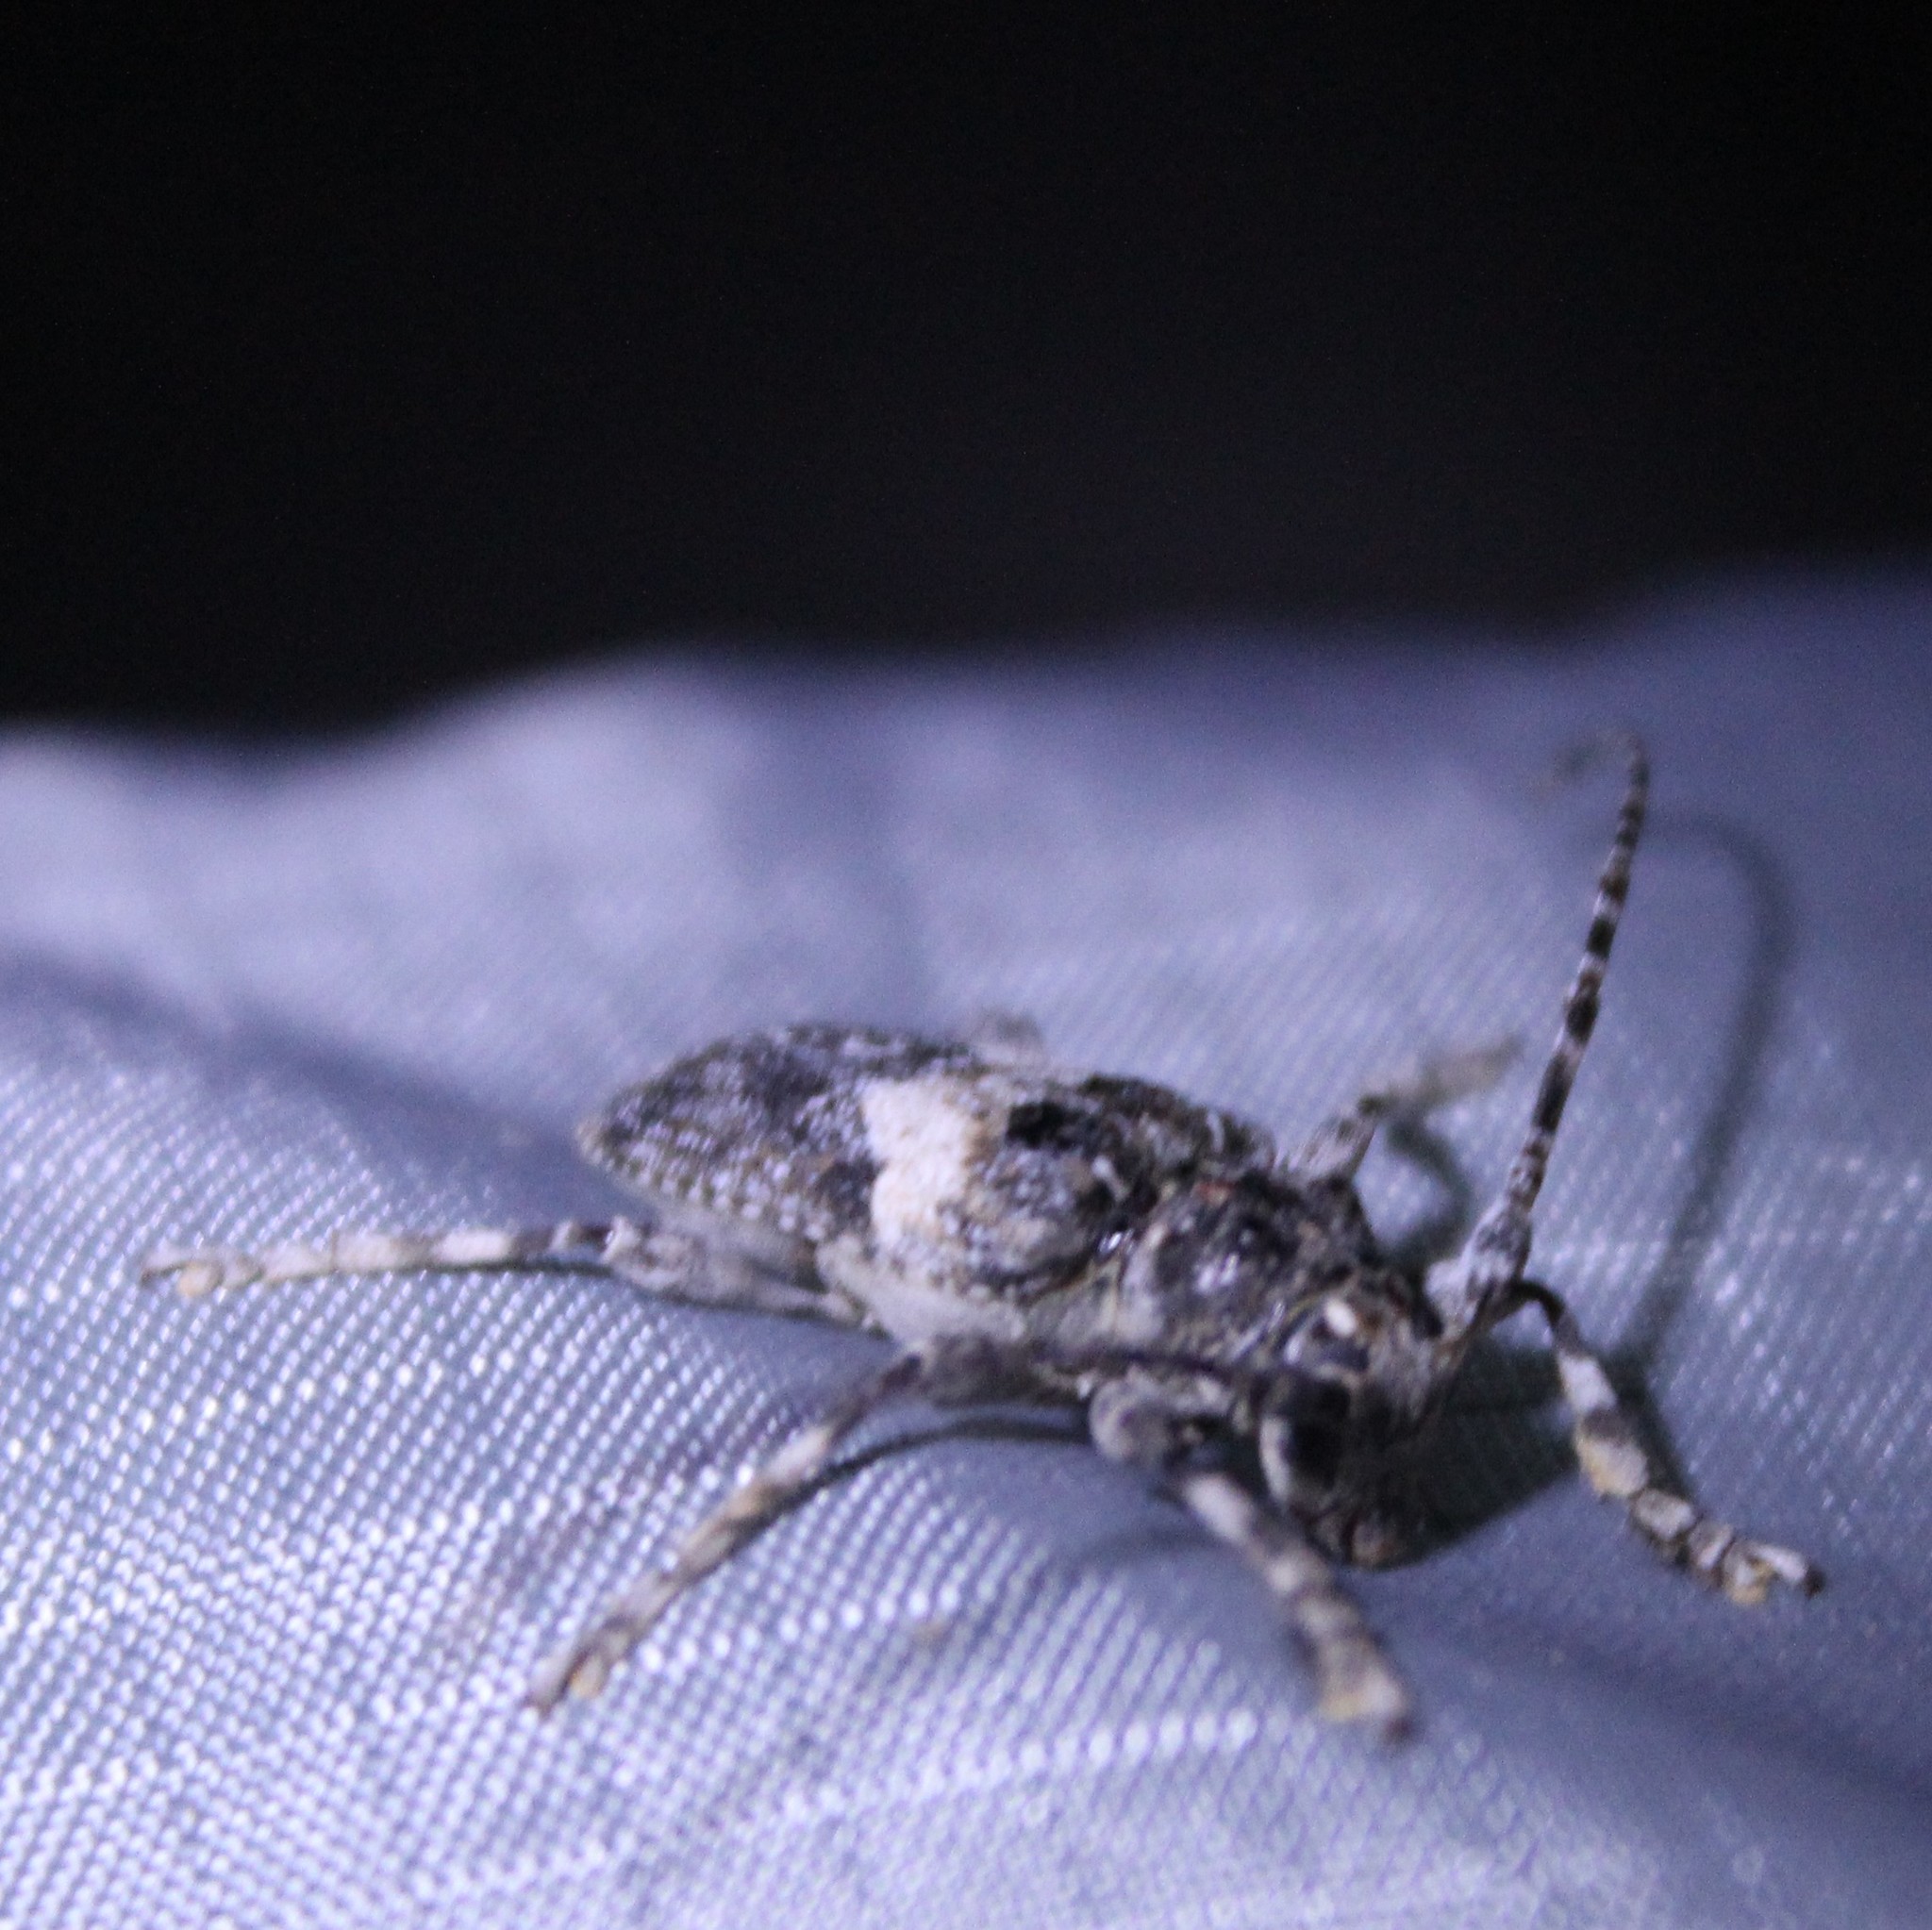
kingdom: Animalia
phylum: Arthropoda
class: Insecta
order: Coleoptera
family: Cerambycidae
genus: Aegomorphus
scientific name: Aegomorphus arizonicus
